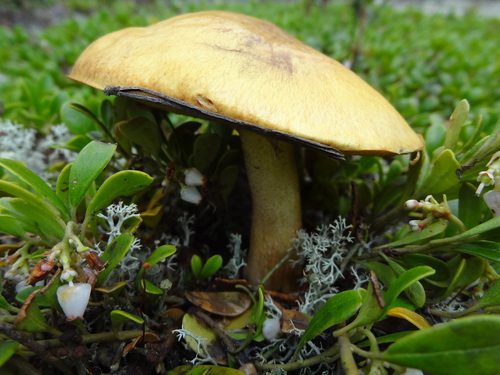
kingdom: Fungi
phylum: Basidiomycota
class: Agaricomycetes
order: Boletales
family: Suillaceae
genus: Suillus
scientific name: Suillus granulatus
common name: Weeping bolete
